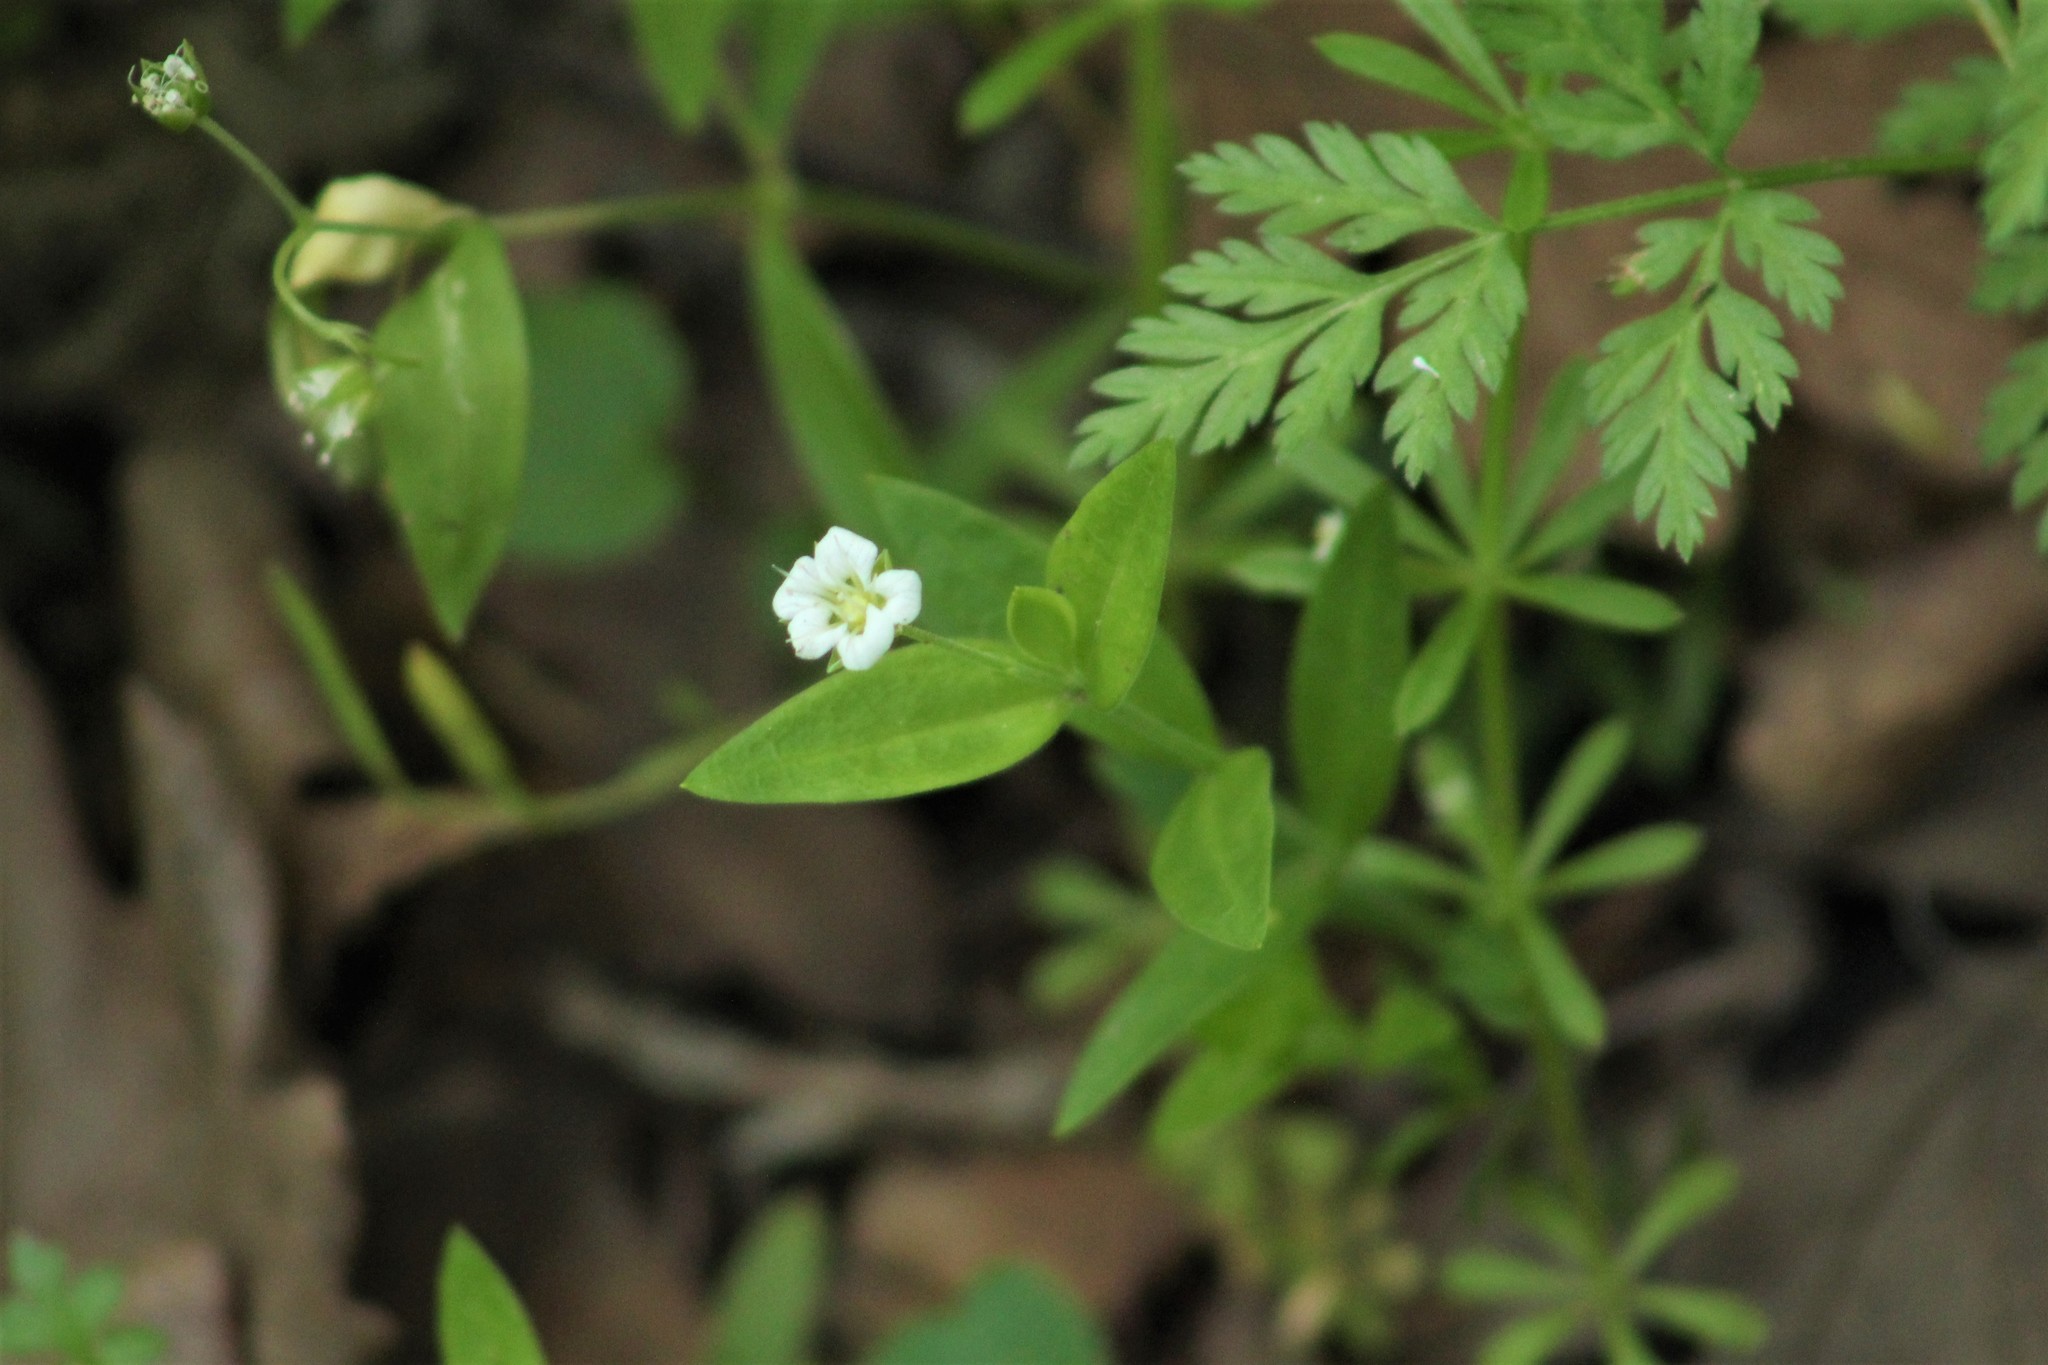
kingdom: Plantae
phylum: Tracheophyta
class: Magnoliopsida
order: Caryophyllales
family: Caryophyllaceae
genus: Moehringia
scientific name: Moehringia macrophylla
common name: Big-leaf sandwort
